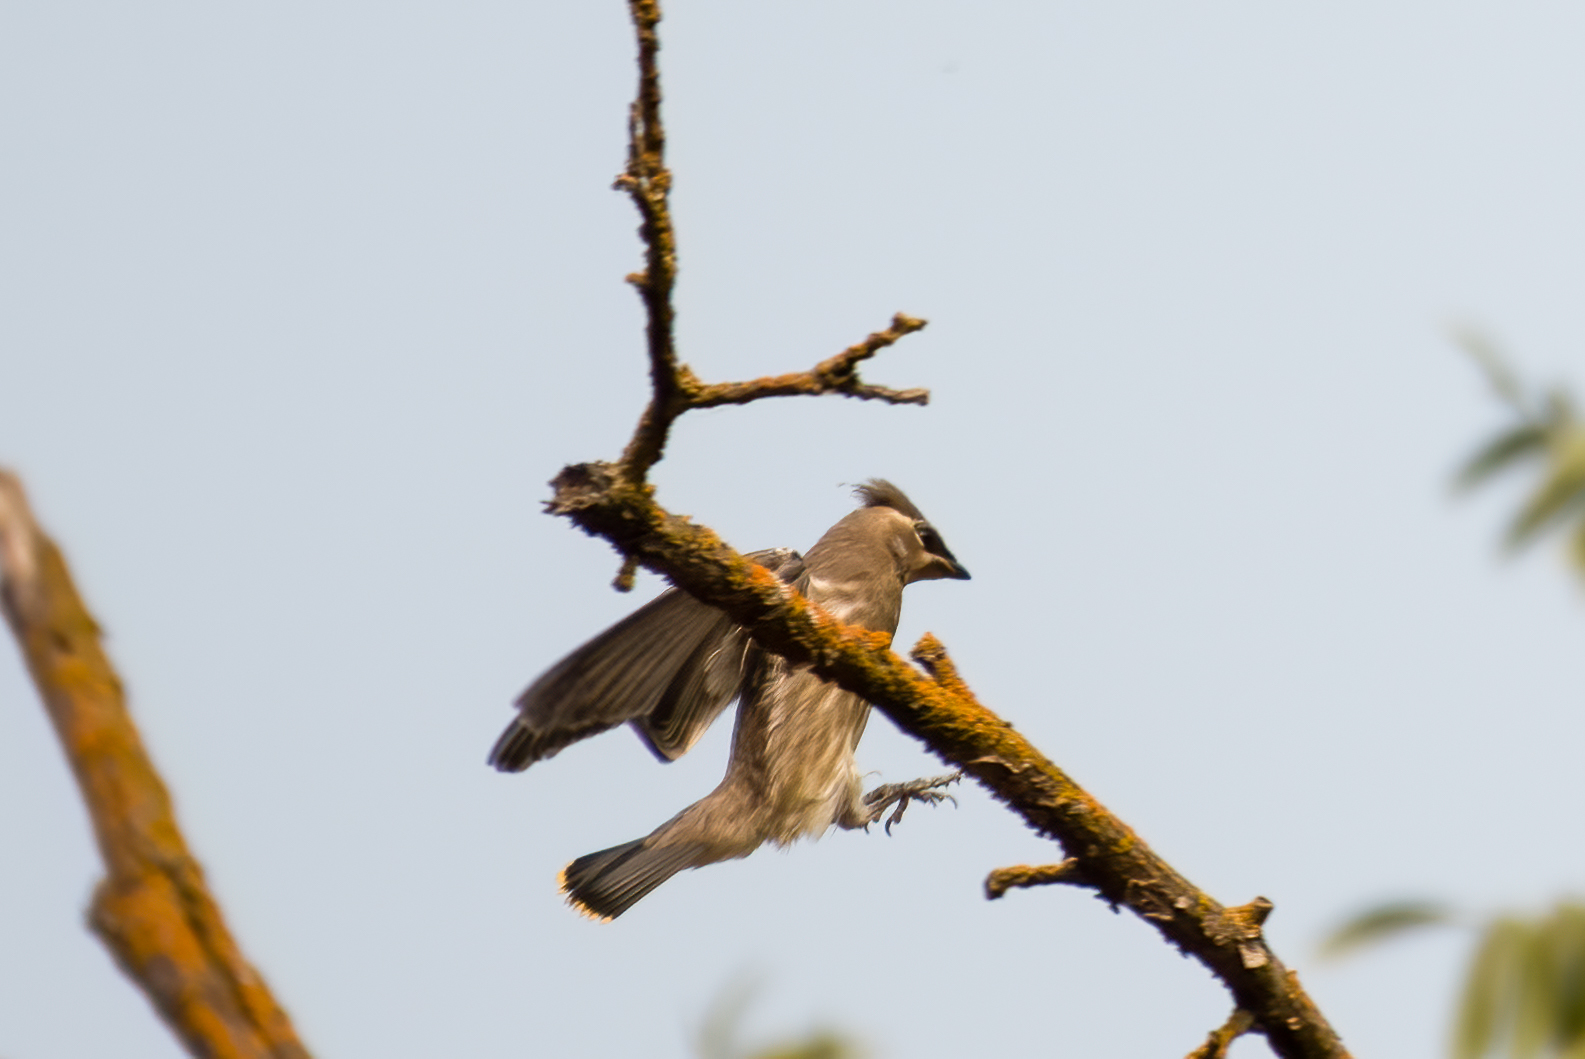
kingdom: Animalia
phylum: Chordata
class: Aves
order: Passeriformes
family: Bombycillidae
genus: Bombycilla
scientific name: Bombycilla cedrorum
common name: Cedar waxwing
